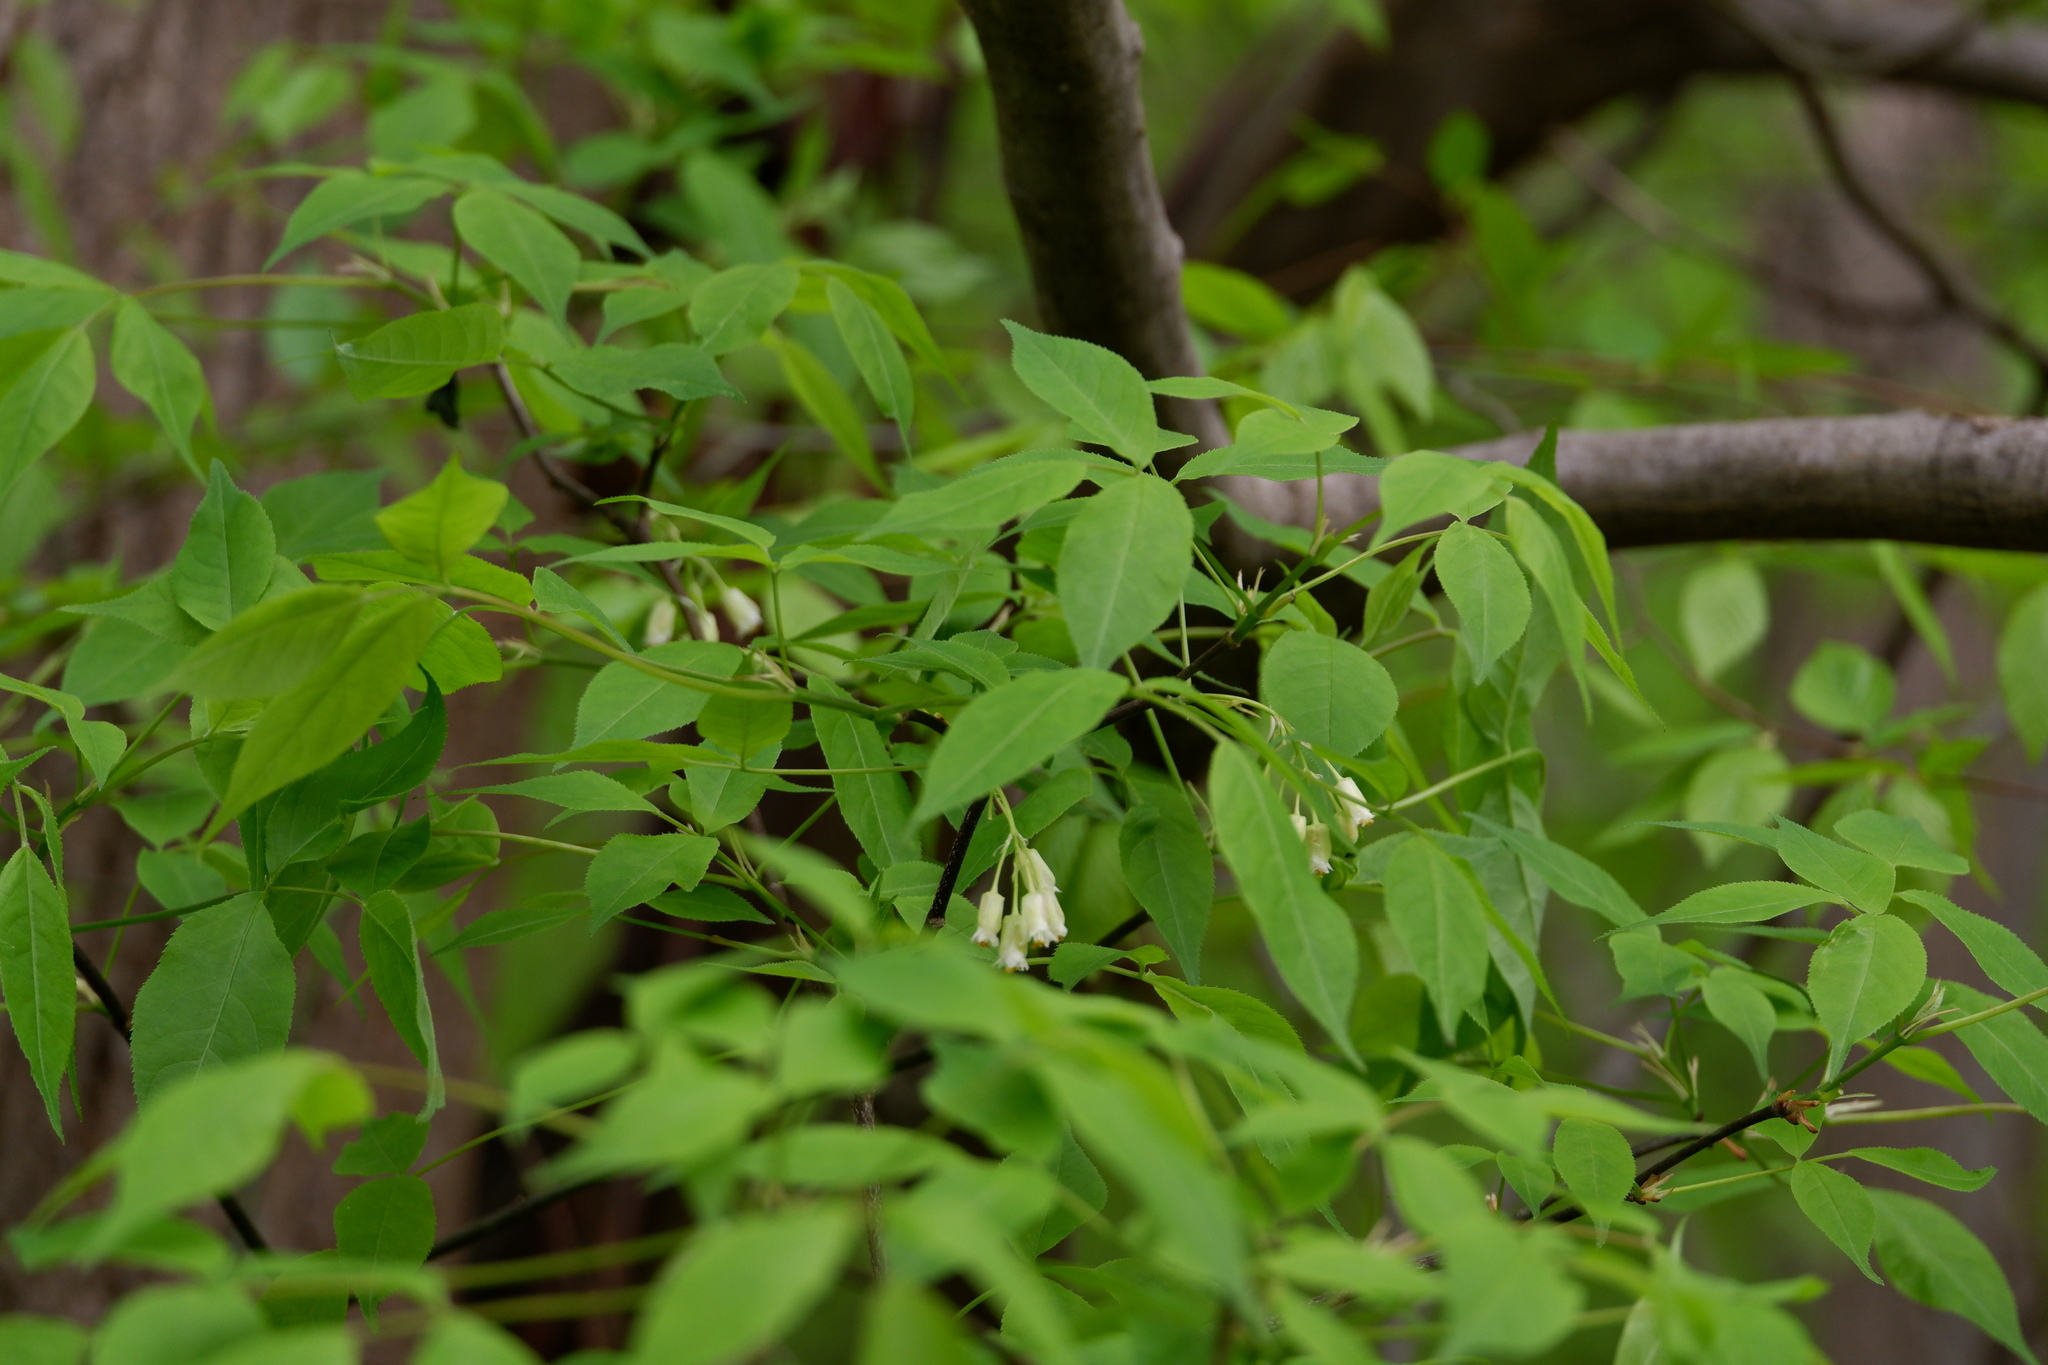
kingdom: Plantae
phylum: Tracheophyta
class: Magnoliopsida
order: Crossosomatales
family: Staphyleaceae
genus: Staphylea
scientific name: Staphylea trifolia
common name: American bladdernut
